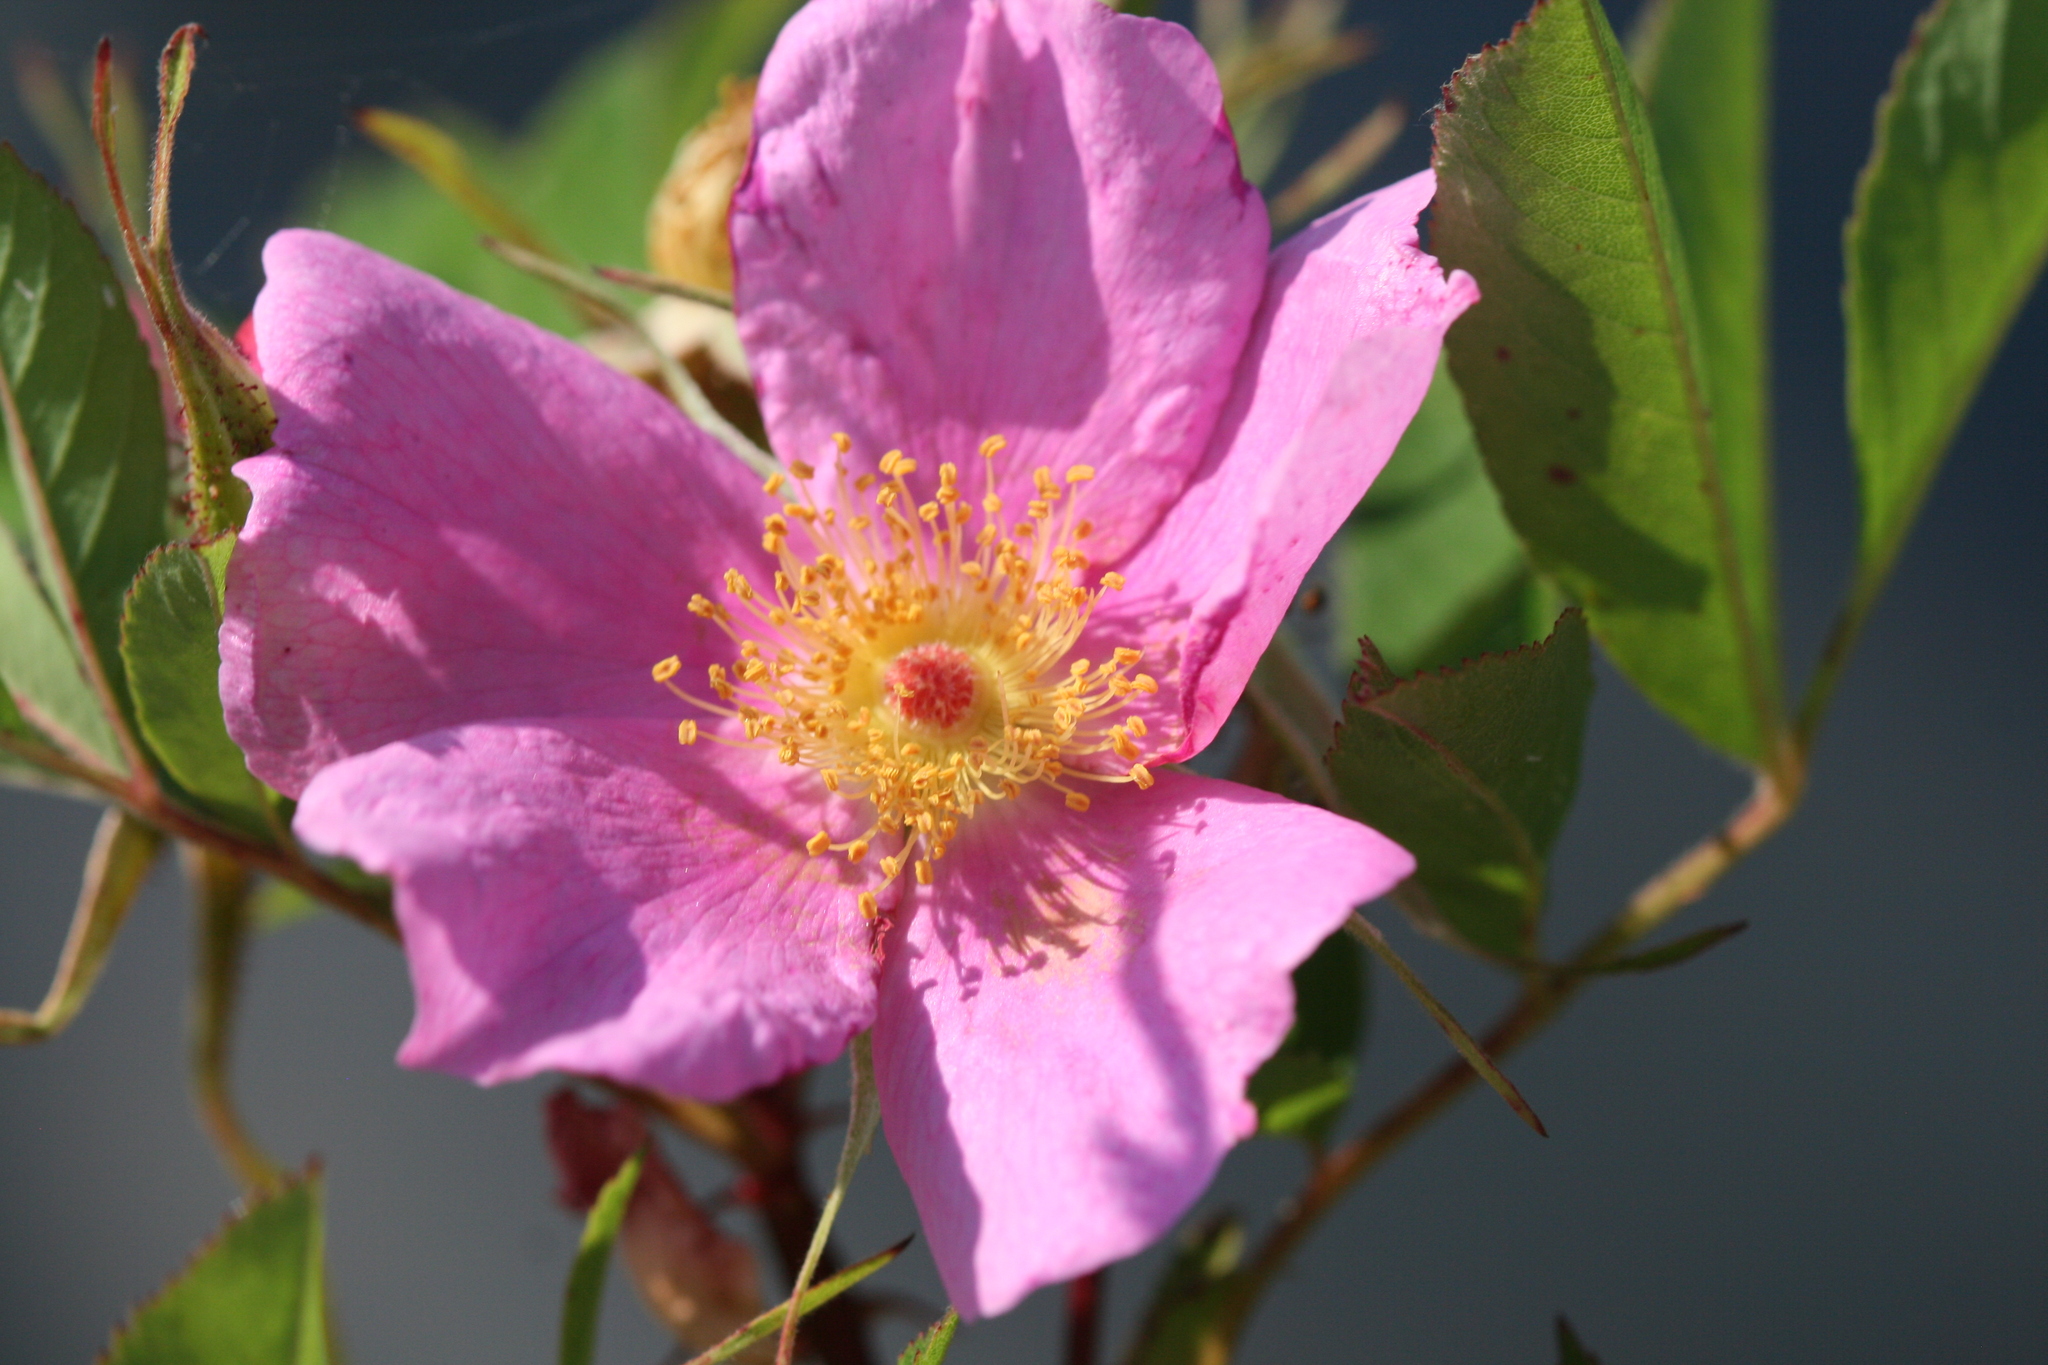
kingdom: Plantae
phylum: Tracheophyta
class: Magnoliopsida
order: Rosales
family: Rosaceae
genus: Rosa
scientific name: Rosa palustris
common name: Swamp rose
